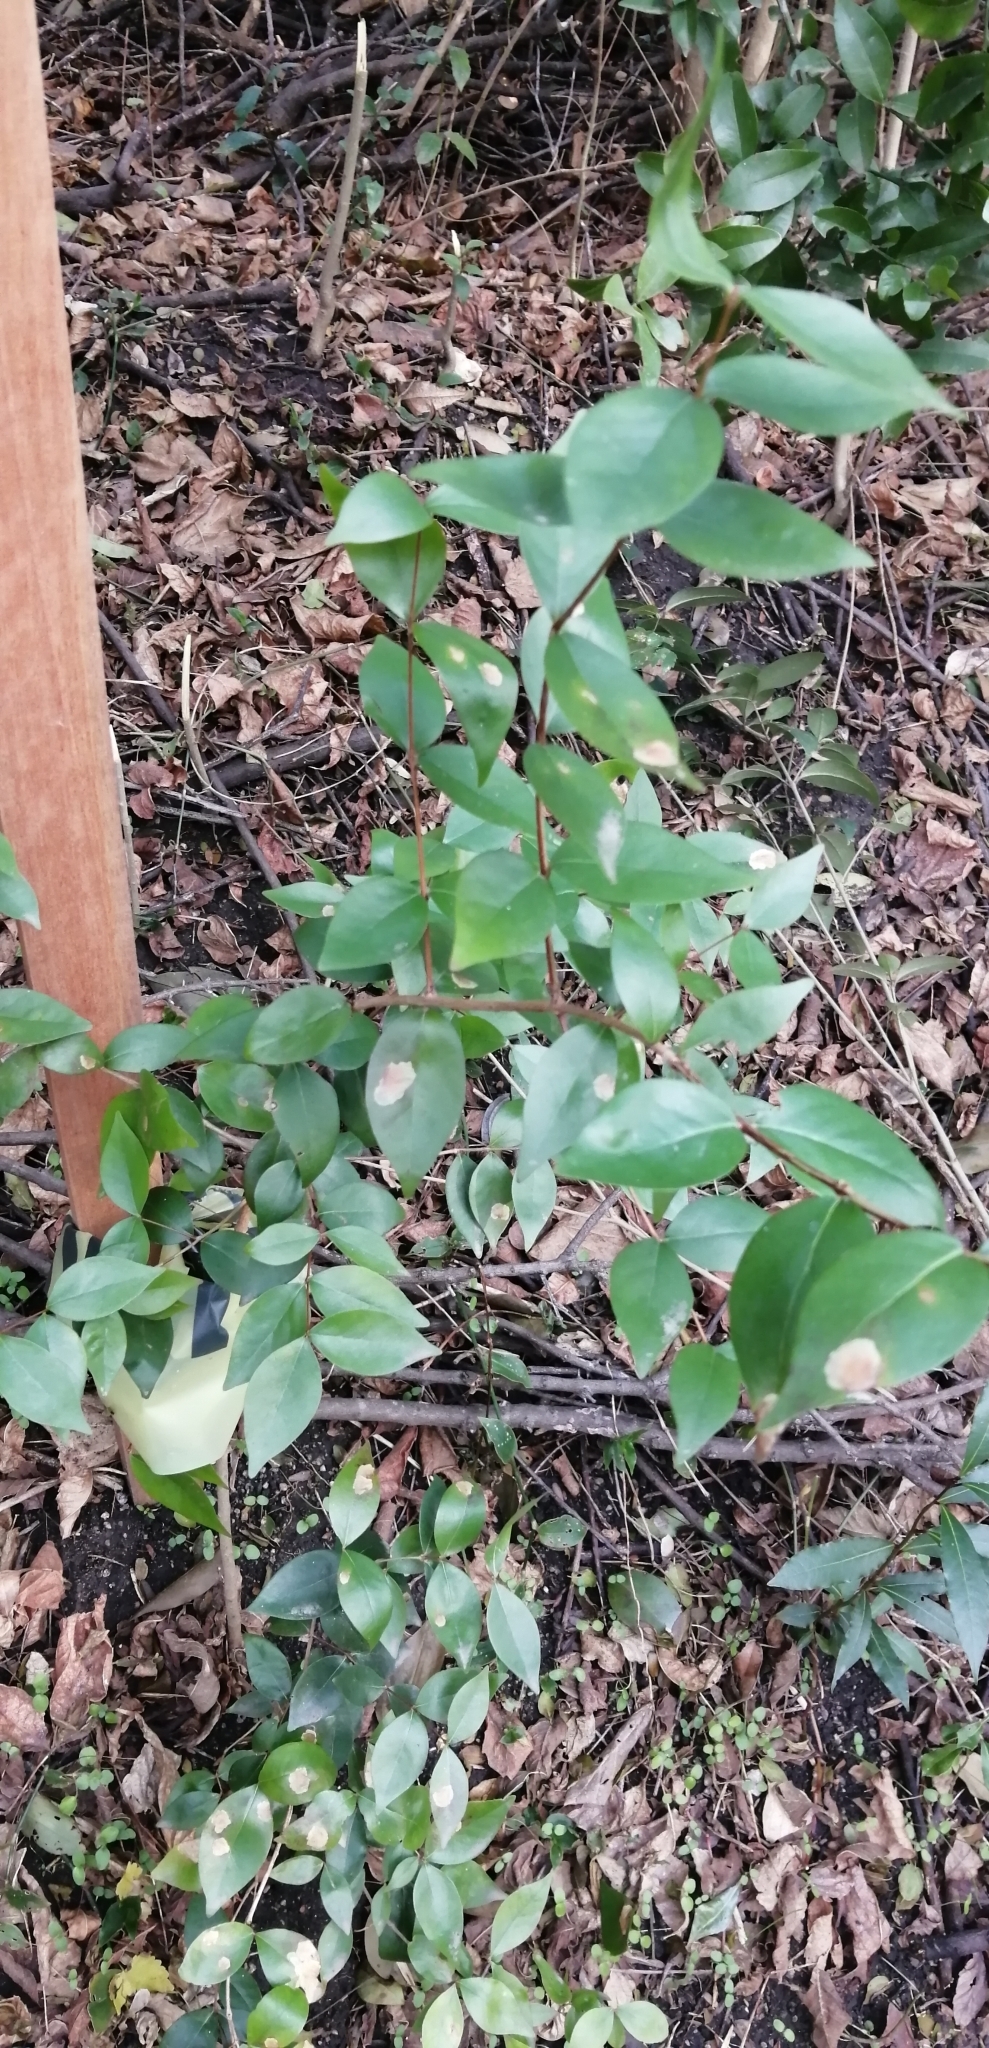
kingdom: Plantae
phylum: Tracheophyta
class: Magnoliopsida
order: Myrtales
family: Myrtaceae
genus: Eugenia
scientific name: Eugenia uniflora
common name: Surinam cherry
